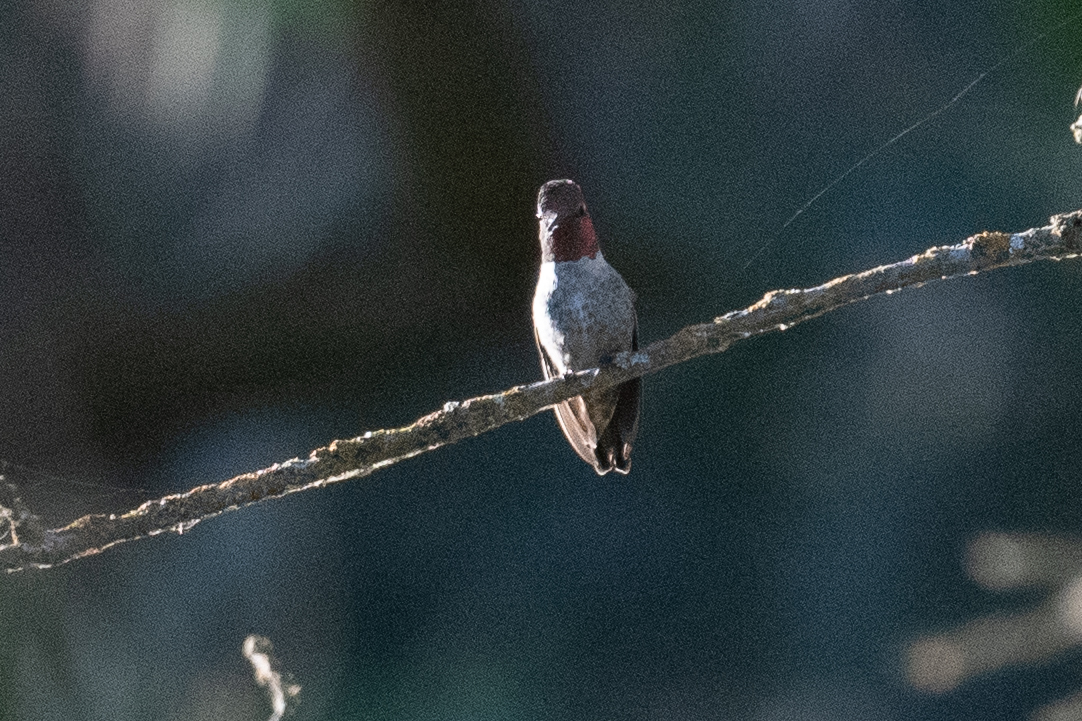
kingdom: Animalia
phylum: Chordata
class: Aves
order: Apodiformes
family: Trochilidae
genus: Calypte
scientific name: Calypte anna
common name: Anna's hummingbird
